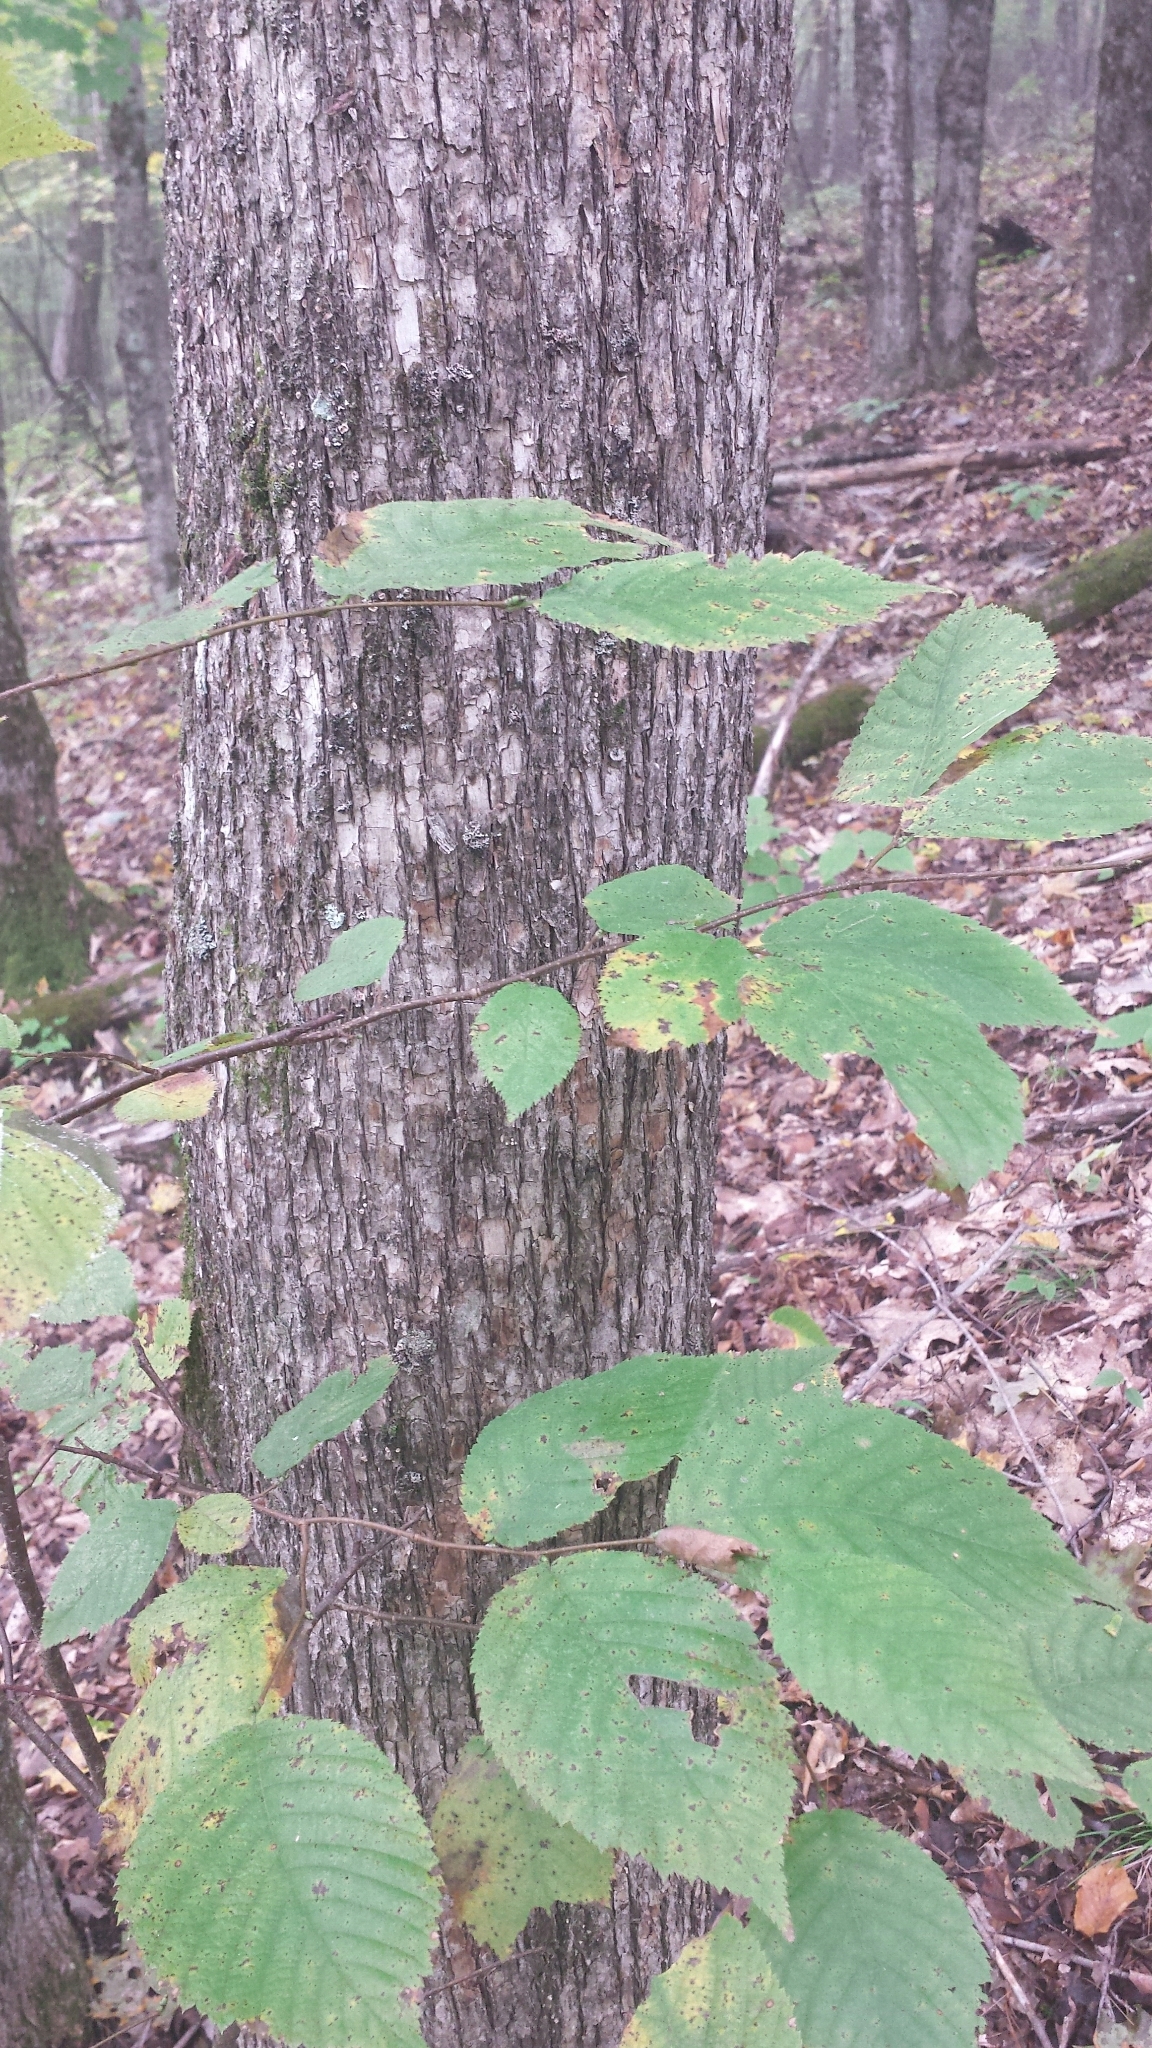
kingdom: Plantae
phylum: Tracheophyta
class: Magnoliopsida
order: Fagales
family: Betulaceae
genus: Ostrya
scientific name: Ostrya virginiana
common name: Ironwood
